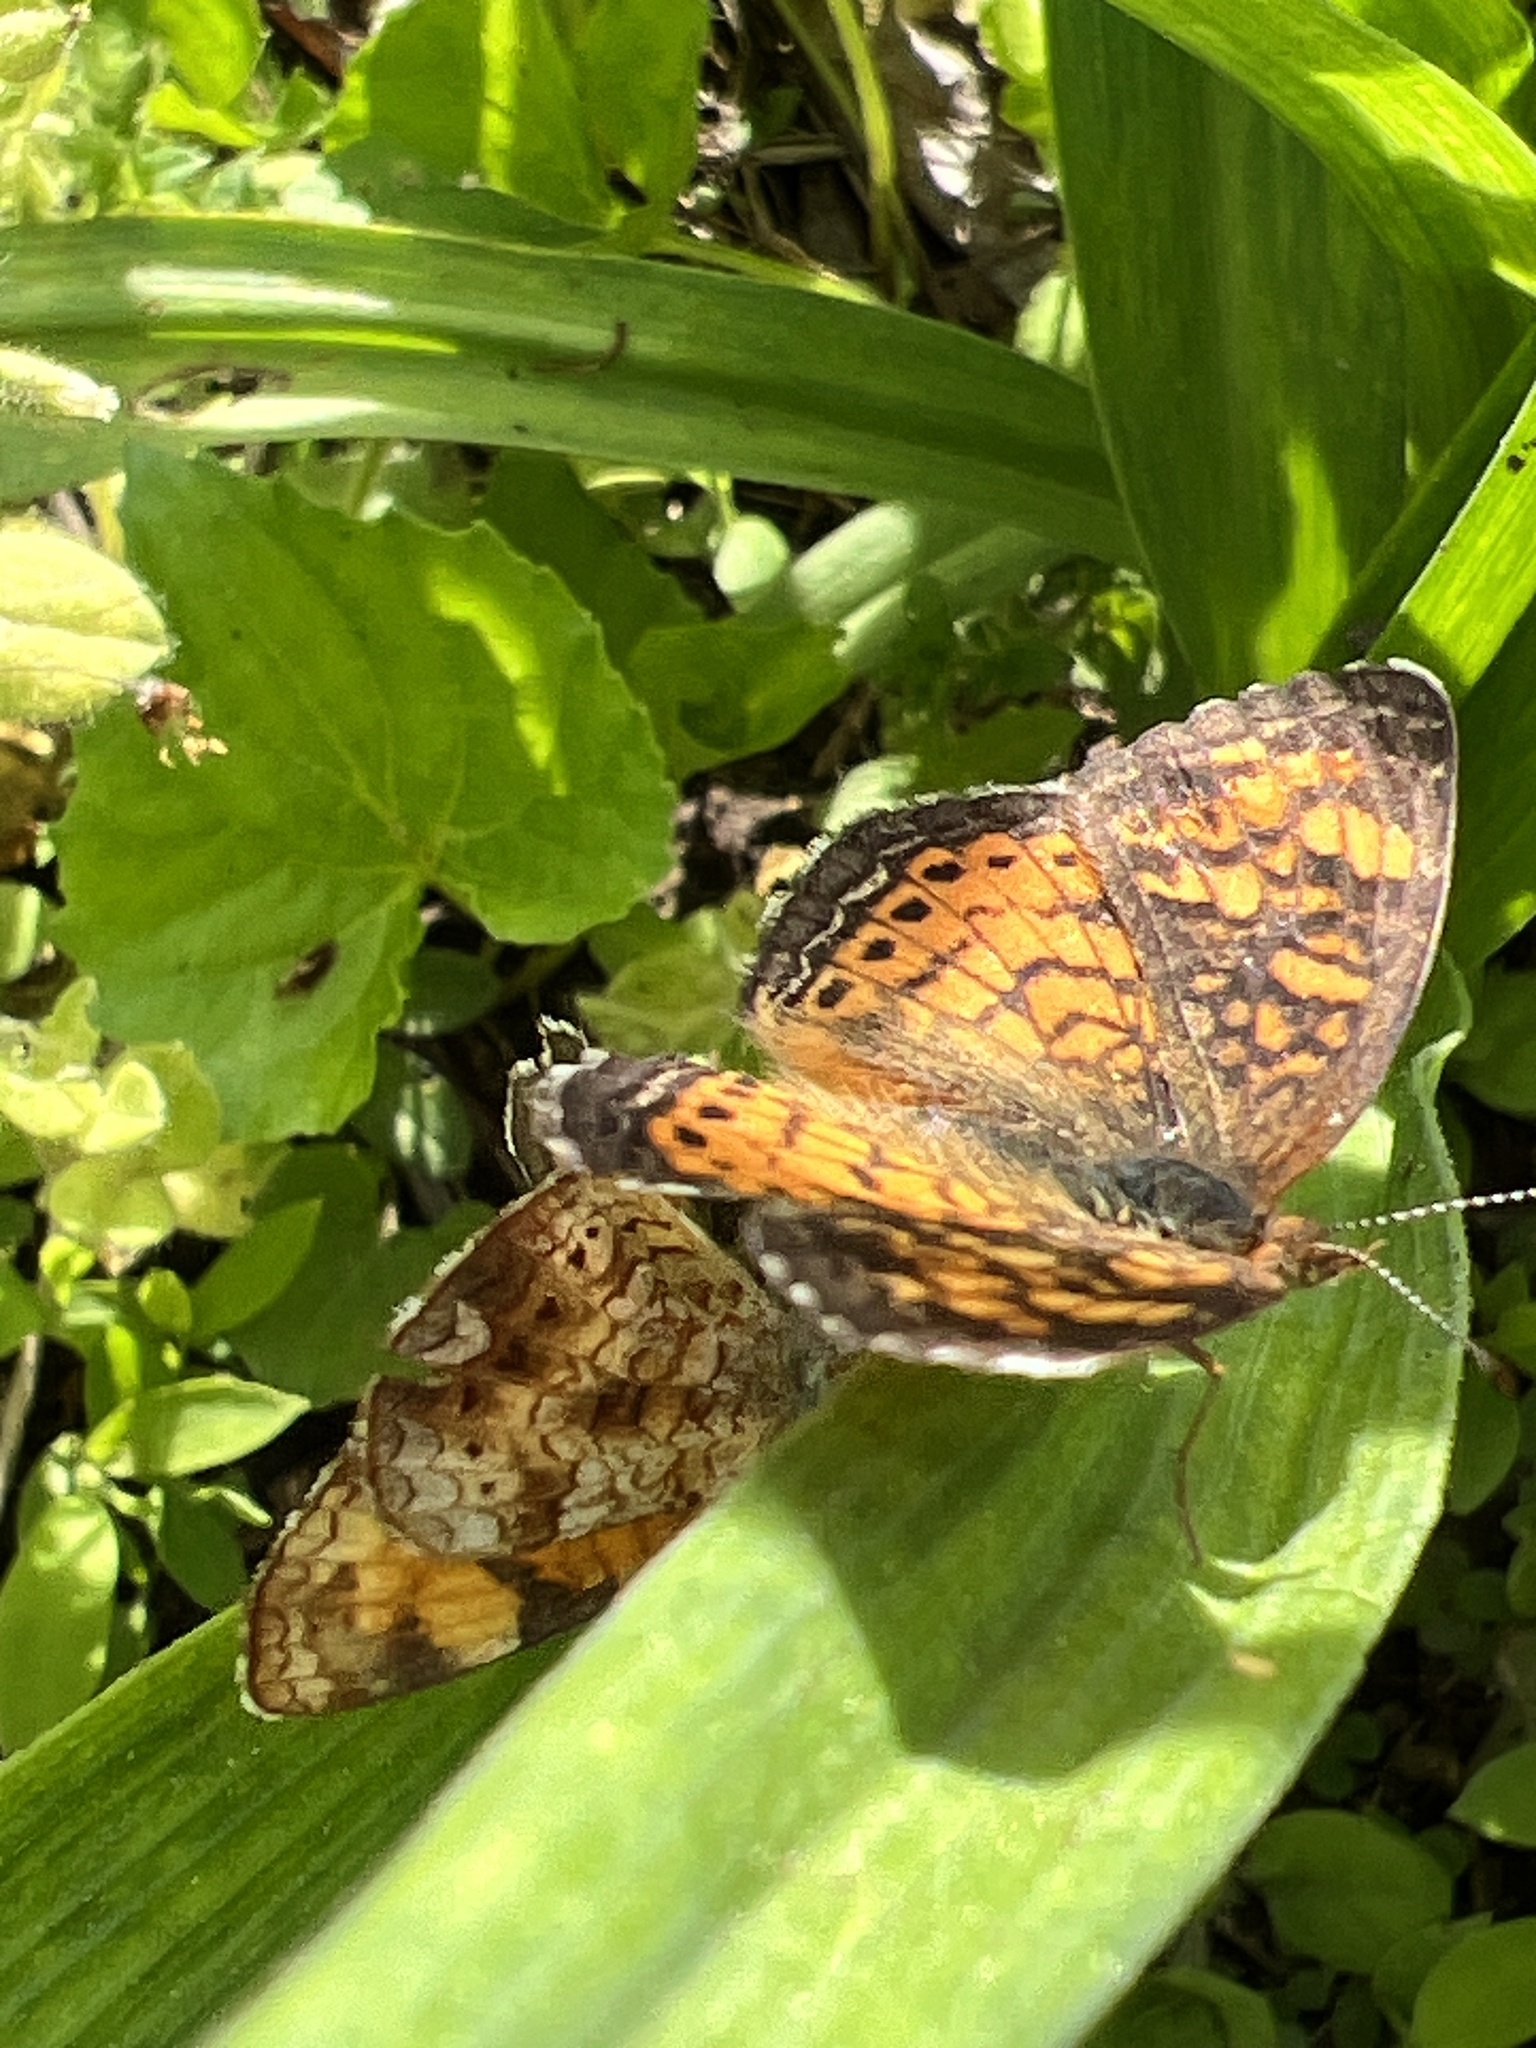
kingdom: Animalia
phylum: Arthropoda
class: Insecta
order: Lepidoptera
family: Nymphalidae
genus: Phyciodes
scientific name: Phyciodes tharos
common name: Pearl crescent
